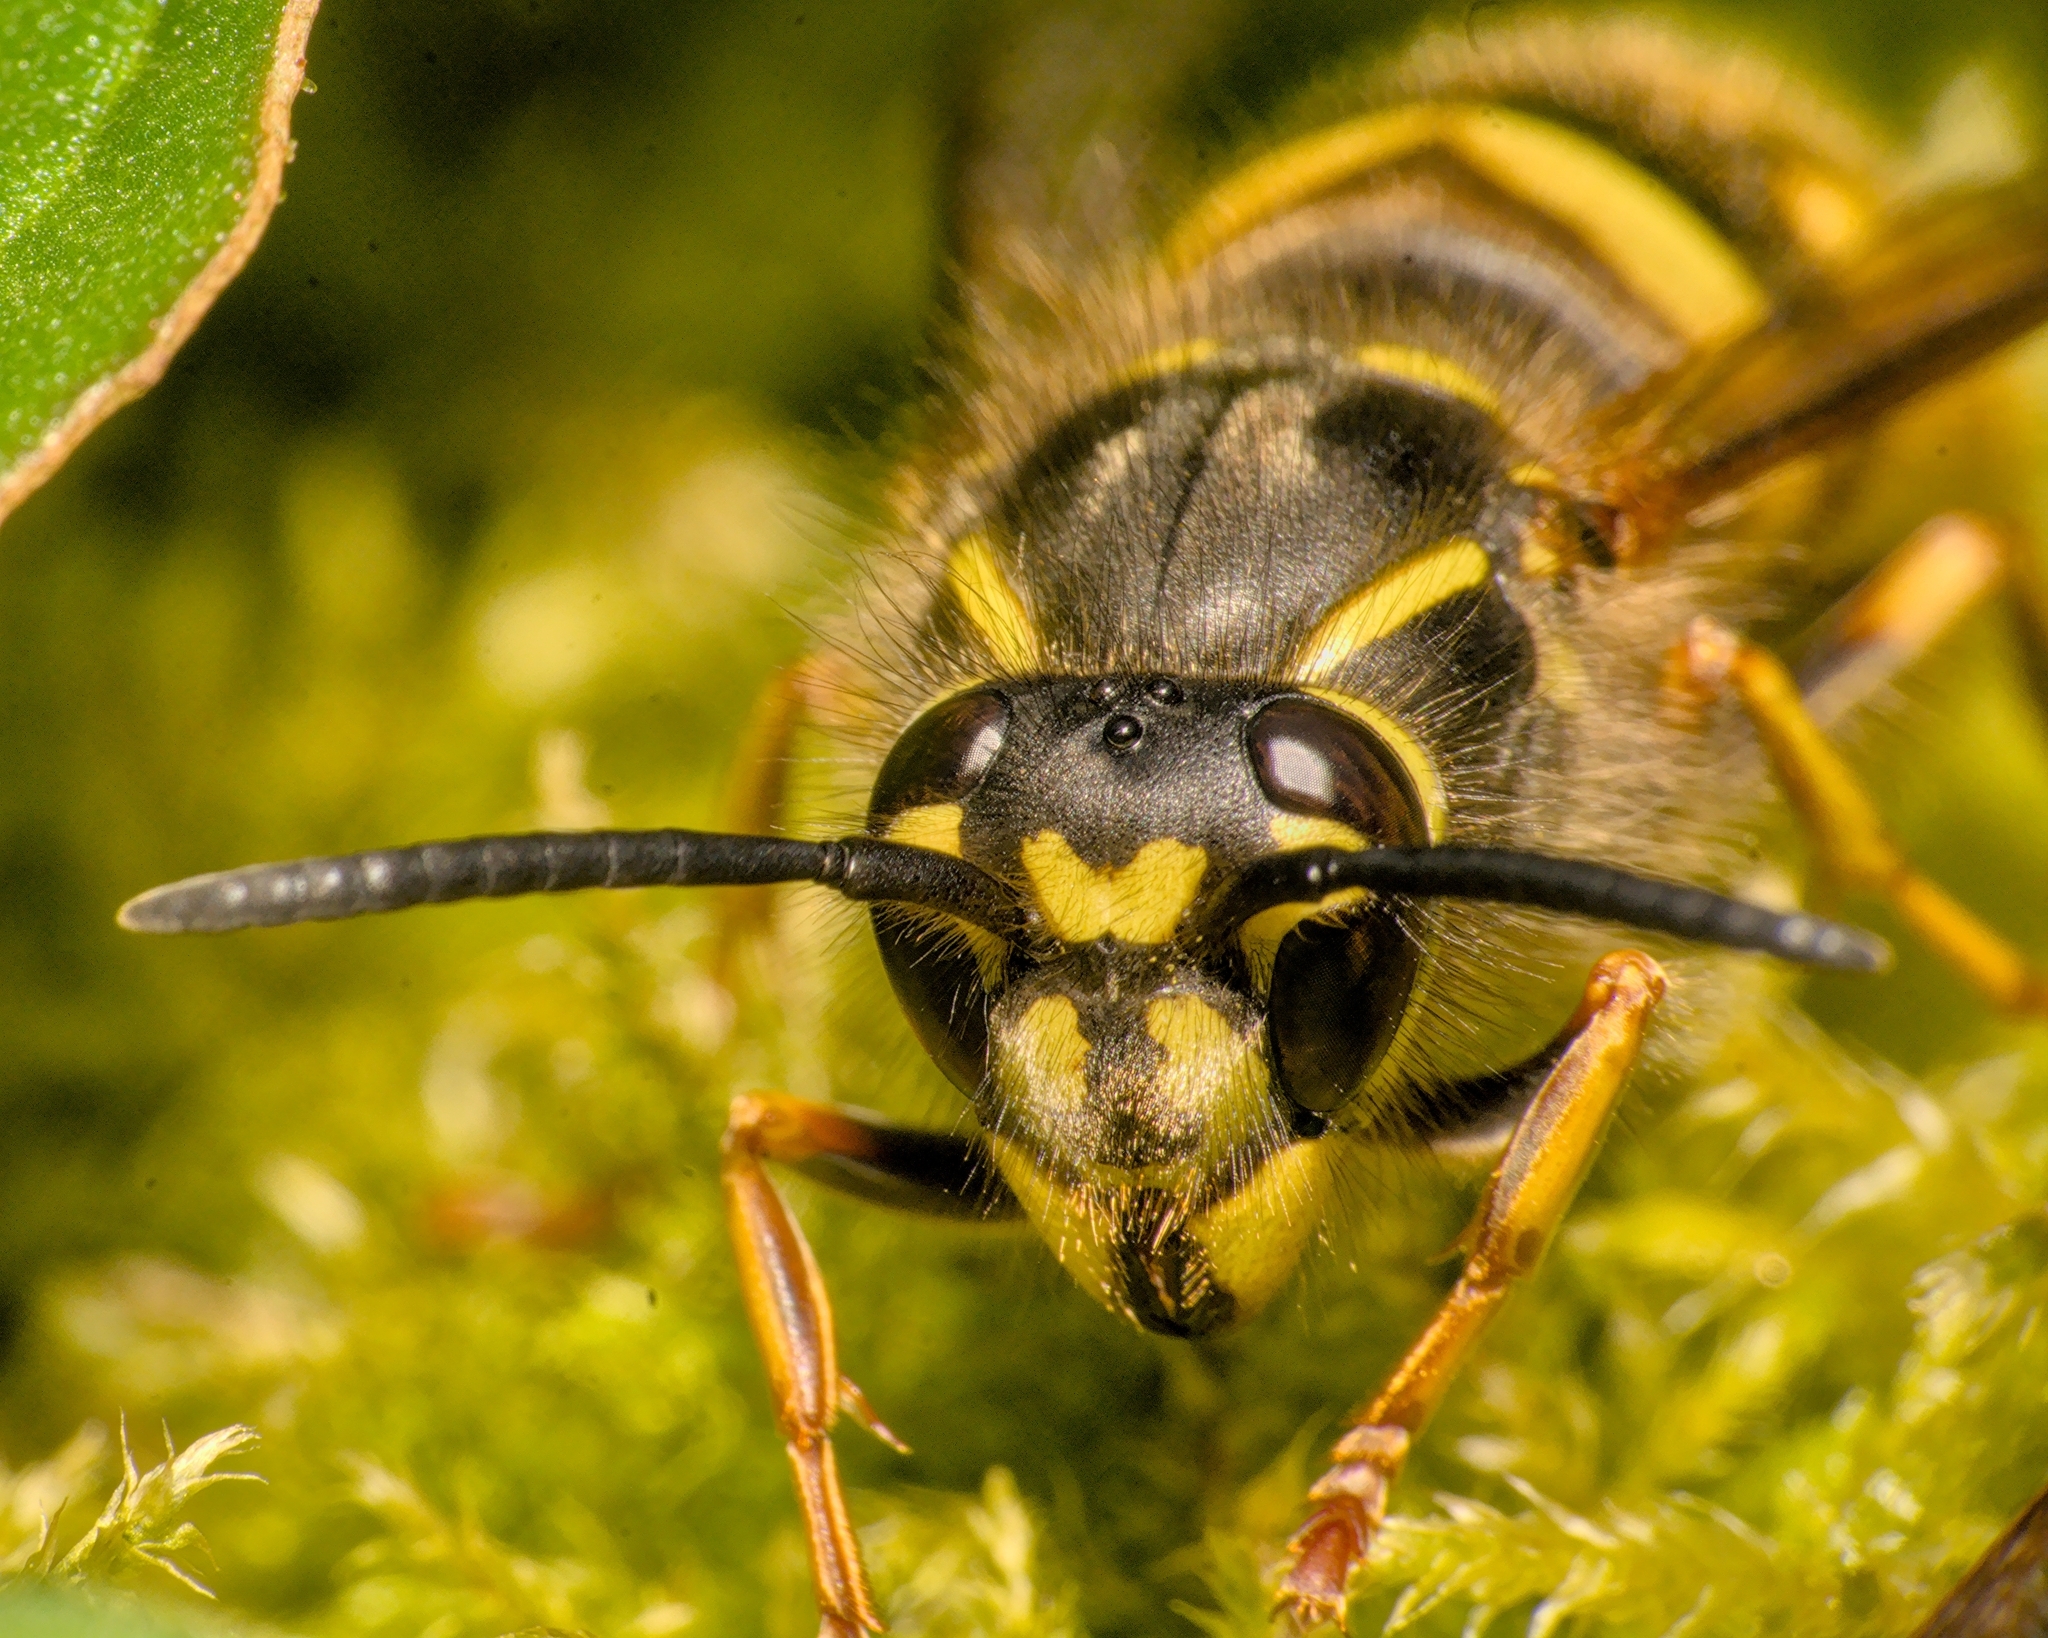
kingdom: Animalia
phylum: Arthropoda
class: Insecta
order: Hymenoptera
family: Vespidae
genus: Vespula
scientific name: Vespula vulgaris
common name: Common wasp
